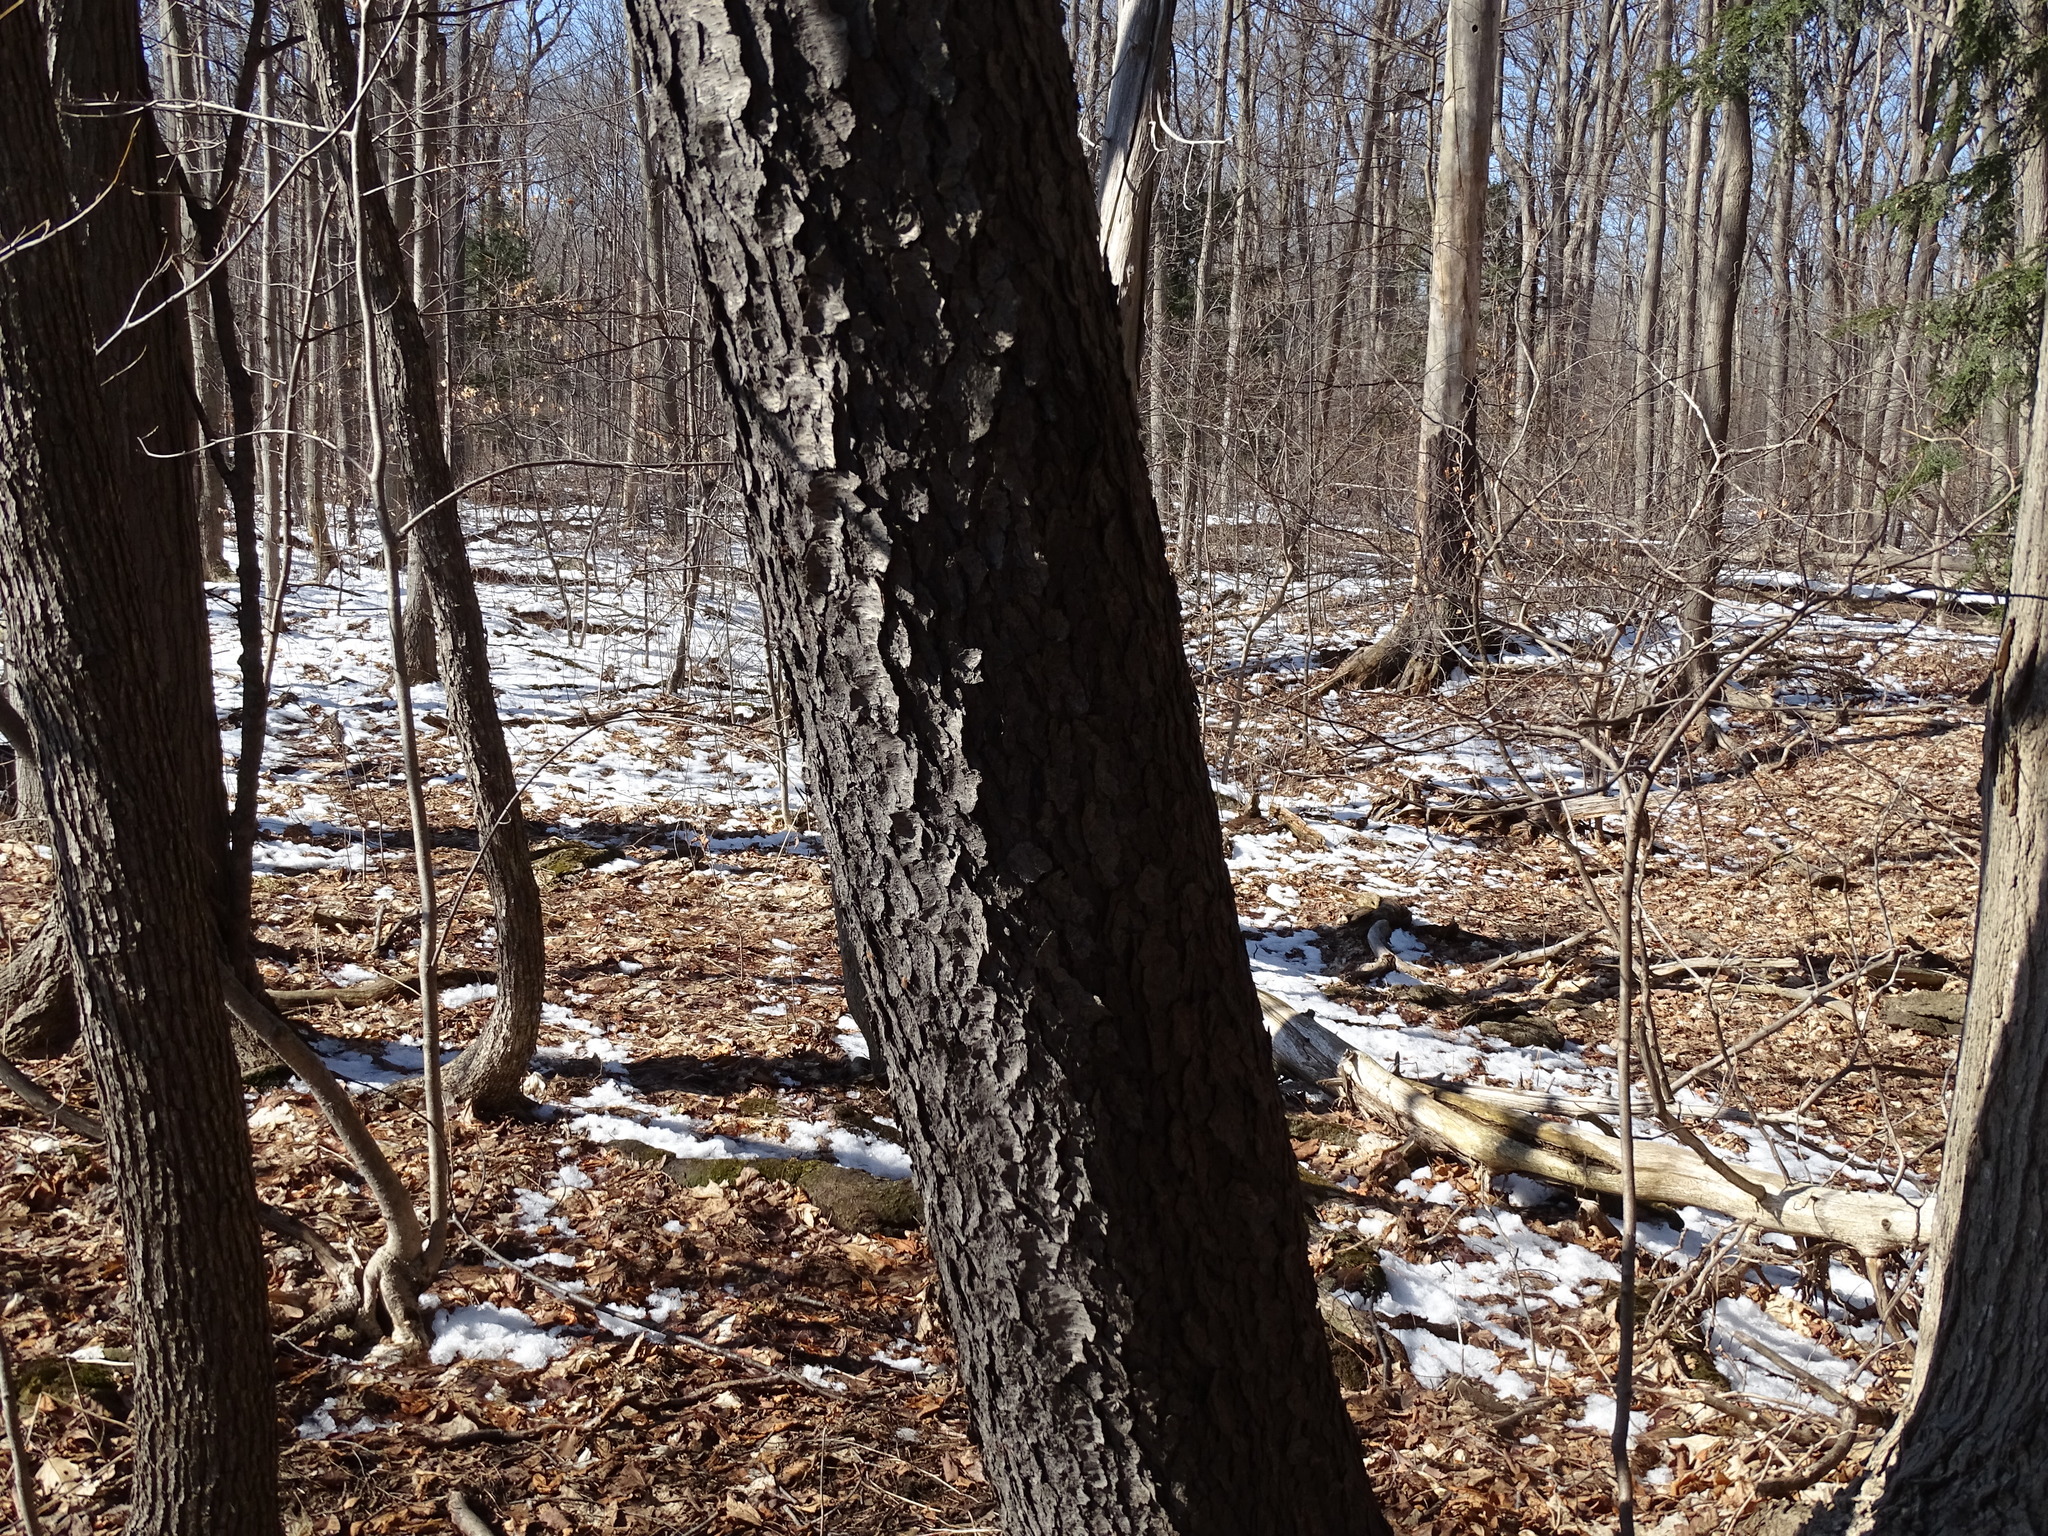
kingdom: Plantae
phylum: Tracheophyta
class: Magnoliopsida
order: Rosales
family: Rosaceae
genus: Prunus
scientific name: Prunus serotina
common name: Black cherry
